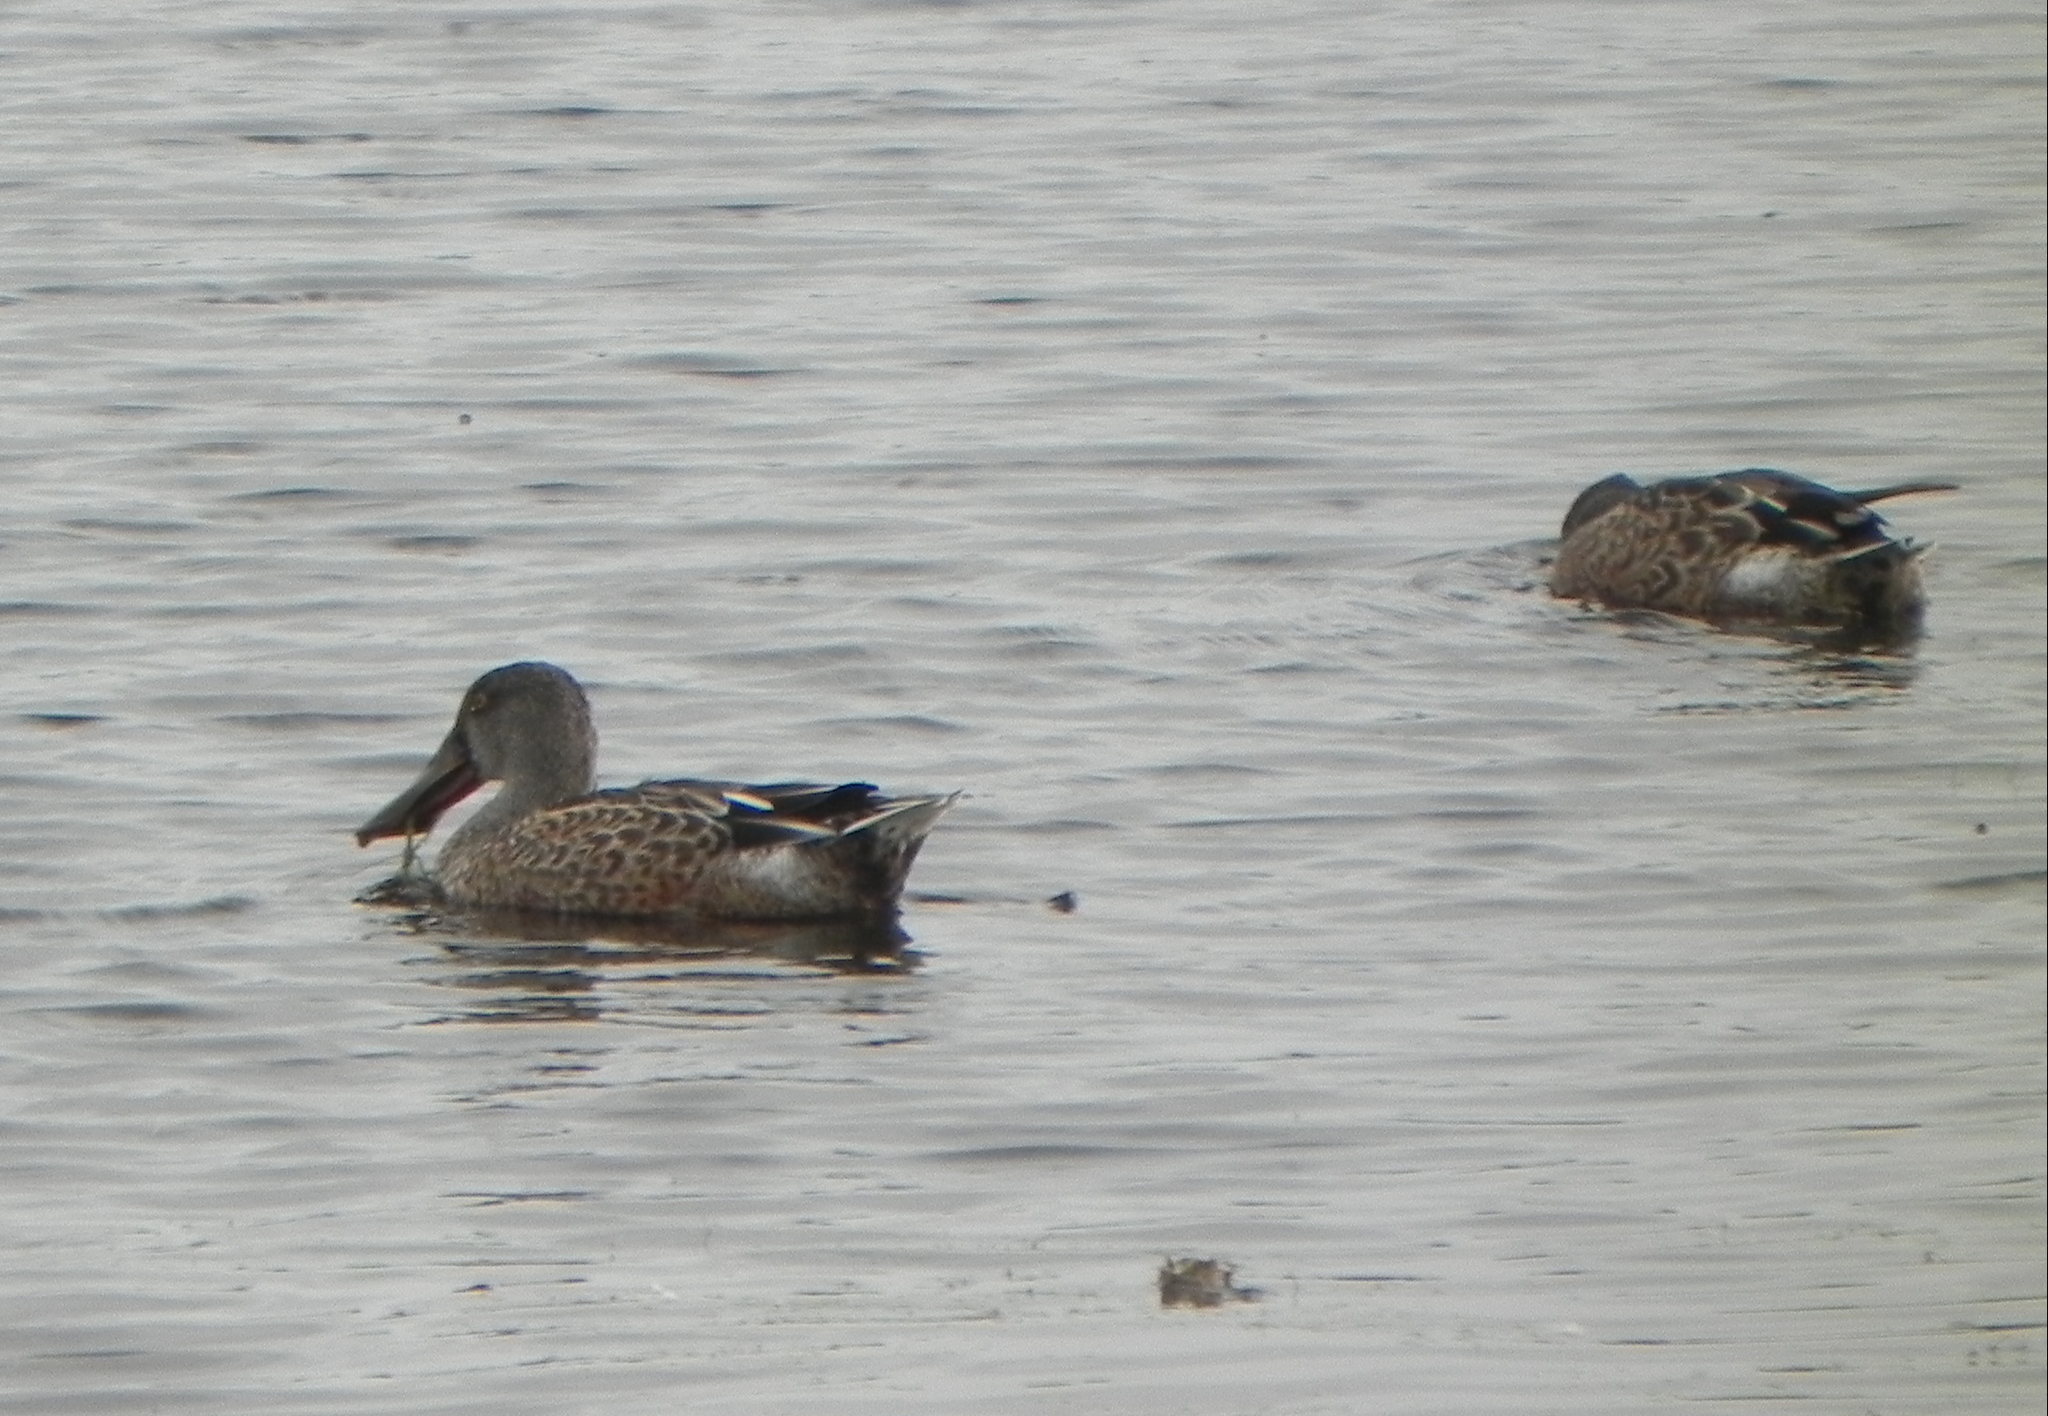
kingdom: Animalia
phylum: Chordata
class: Aves
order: Anseriformes
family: Anatidae
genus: Spatula
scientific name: Spatula clypeata
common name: Northern shoveler
